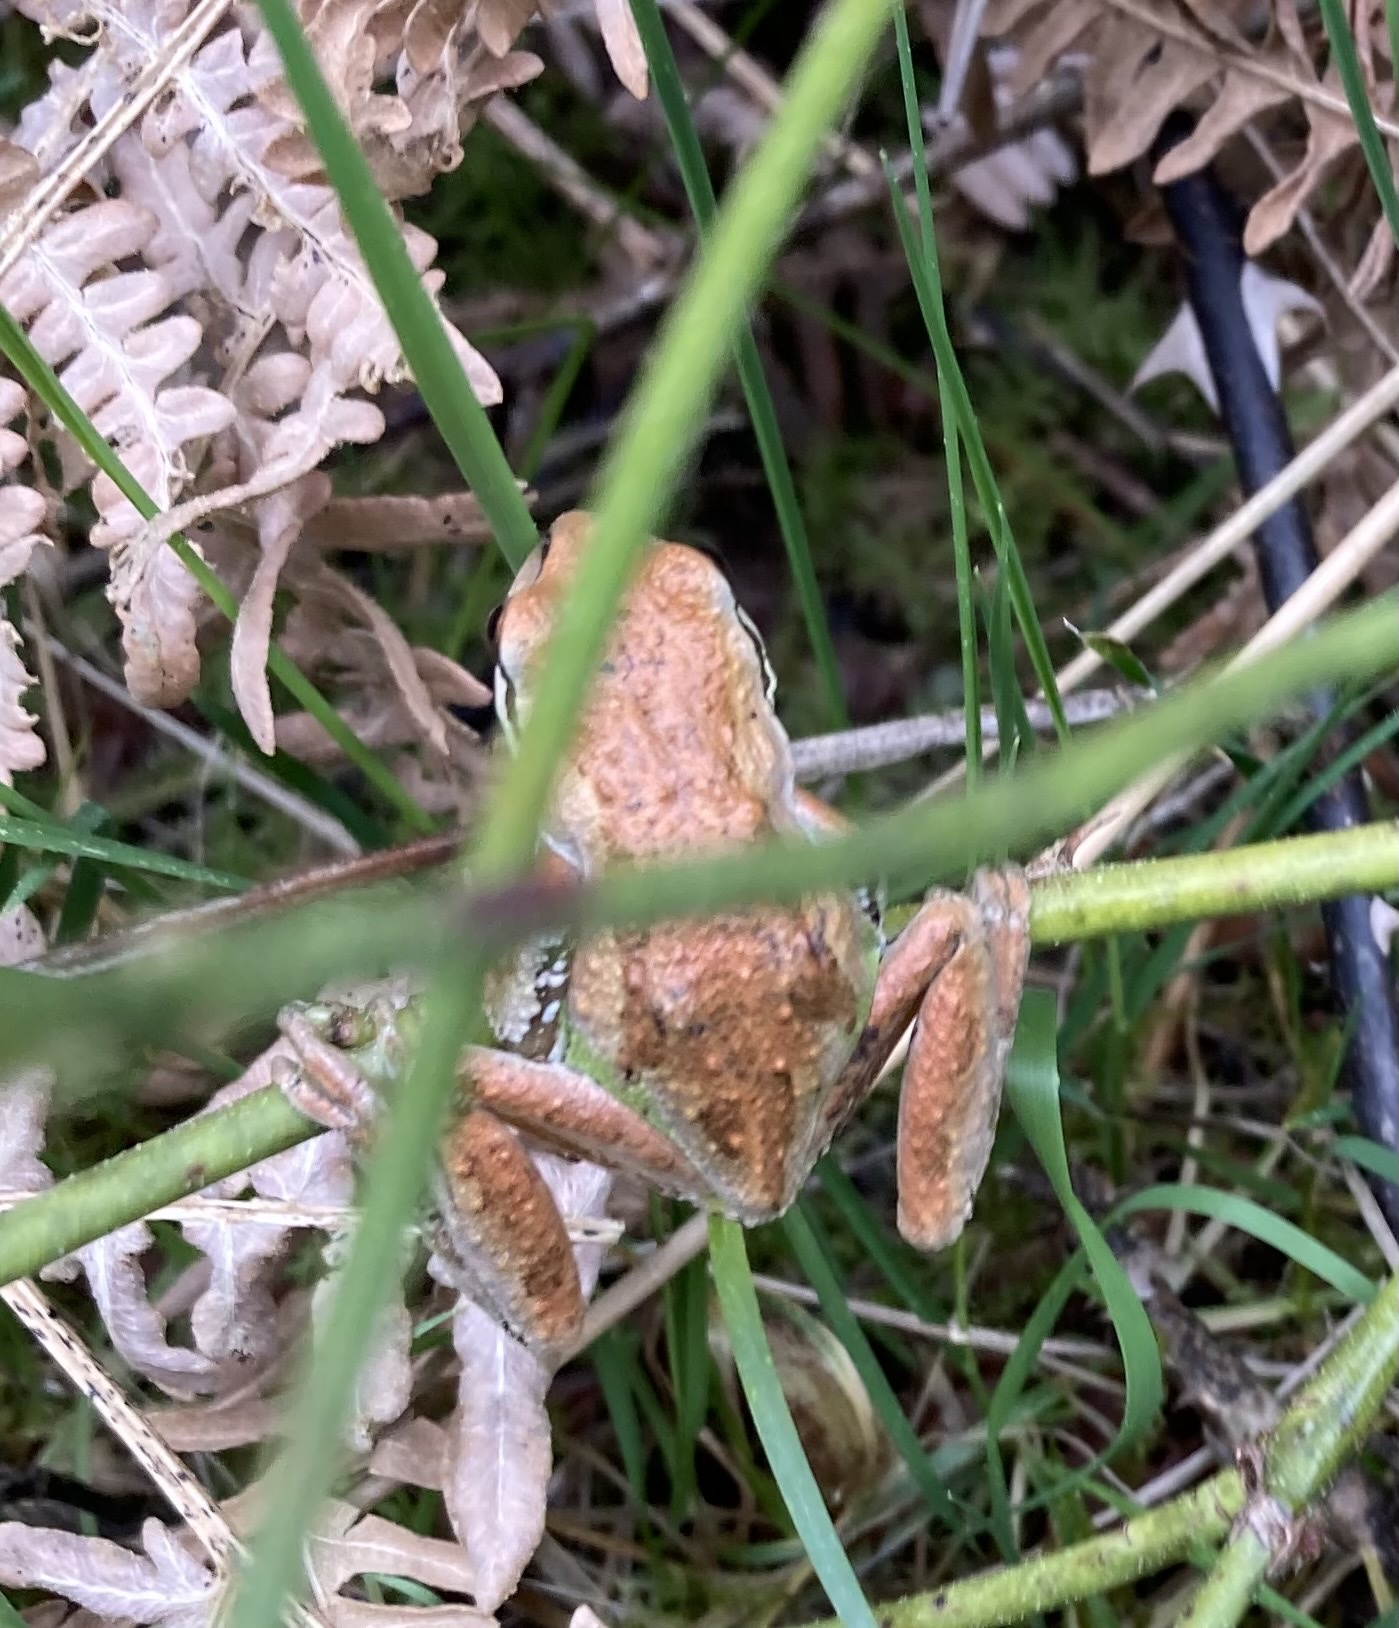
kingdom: Animalia
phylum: Chordata
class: Amphibia
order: Anura
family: Hylidae
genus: Pseudacris
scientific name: Pseudacris regilla
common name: Pacific chorus frog
